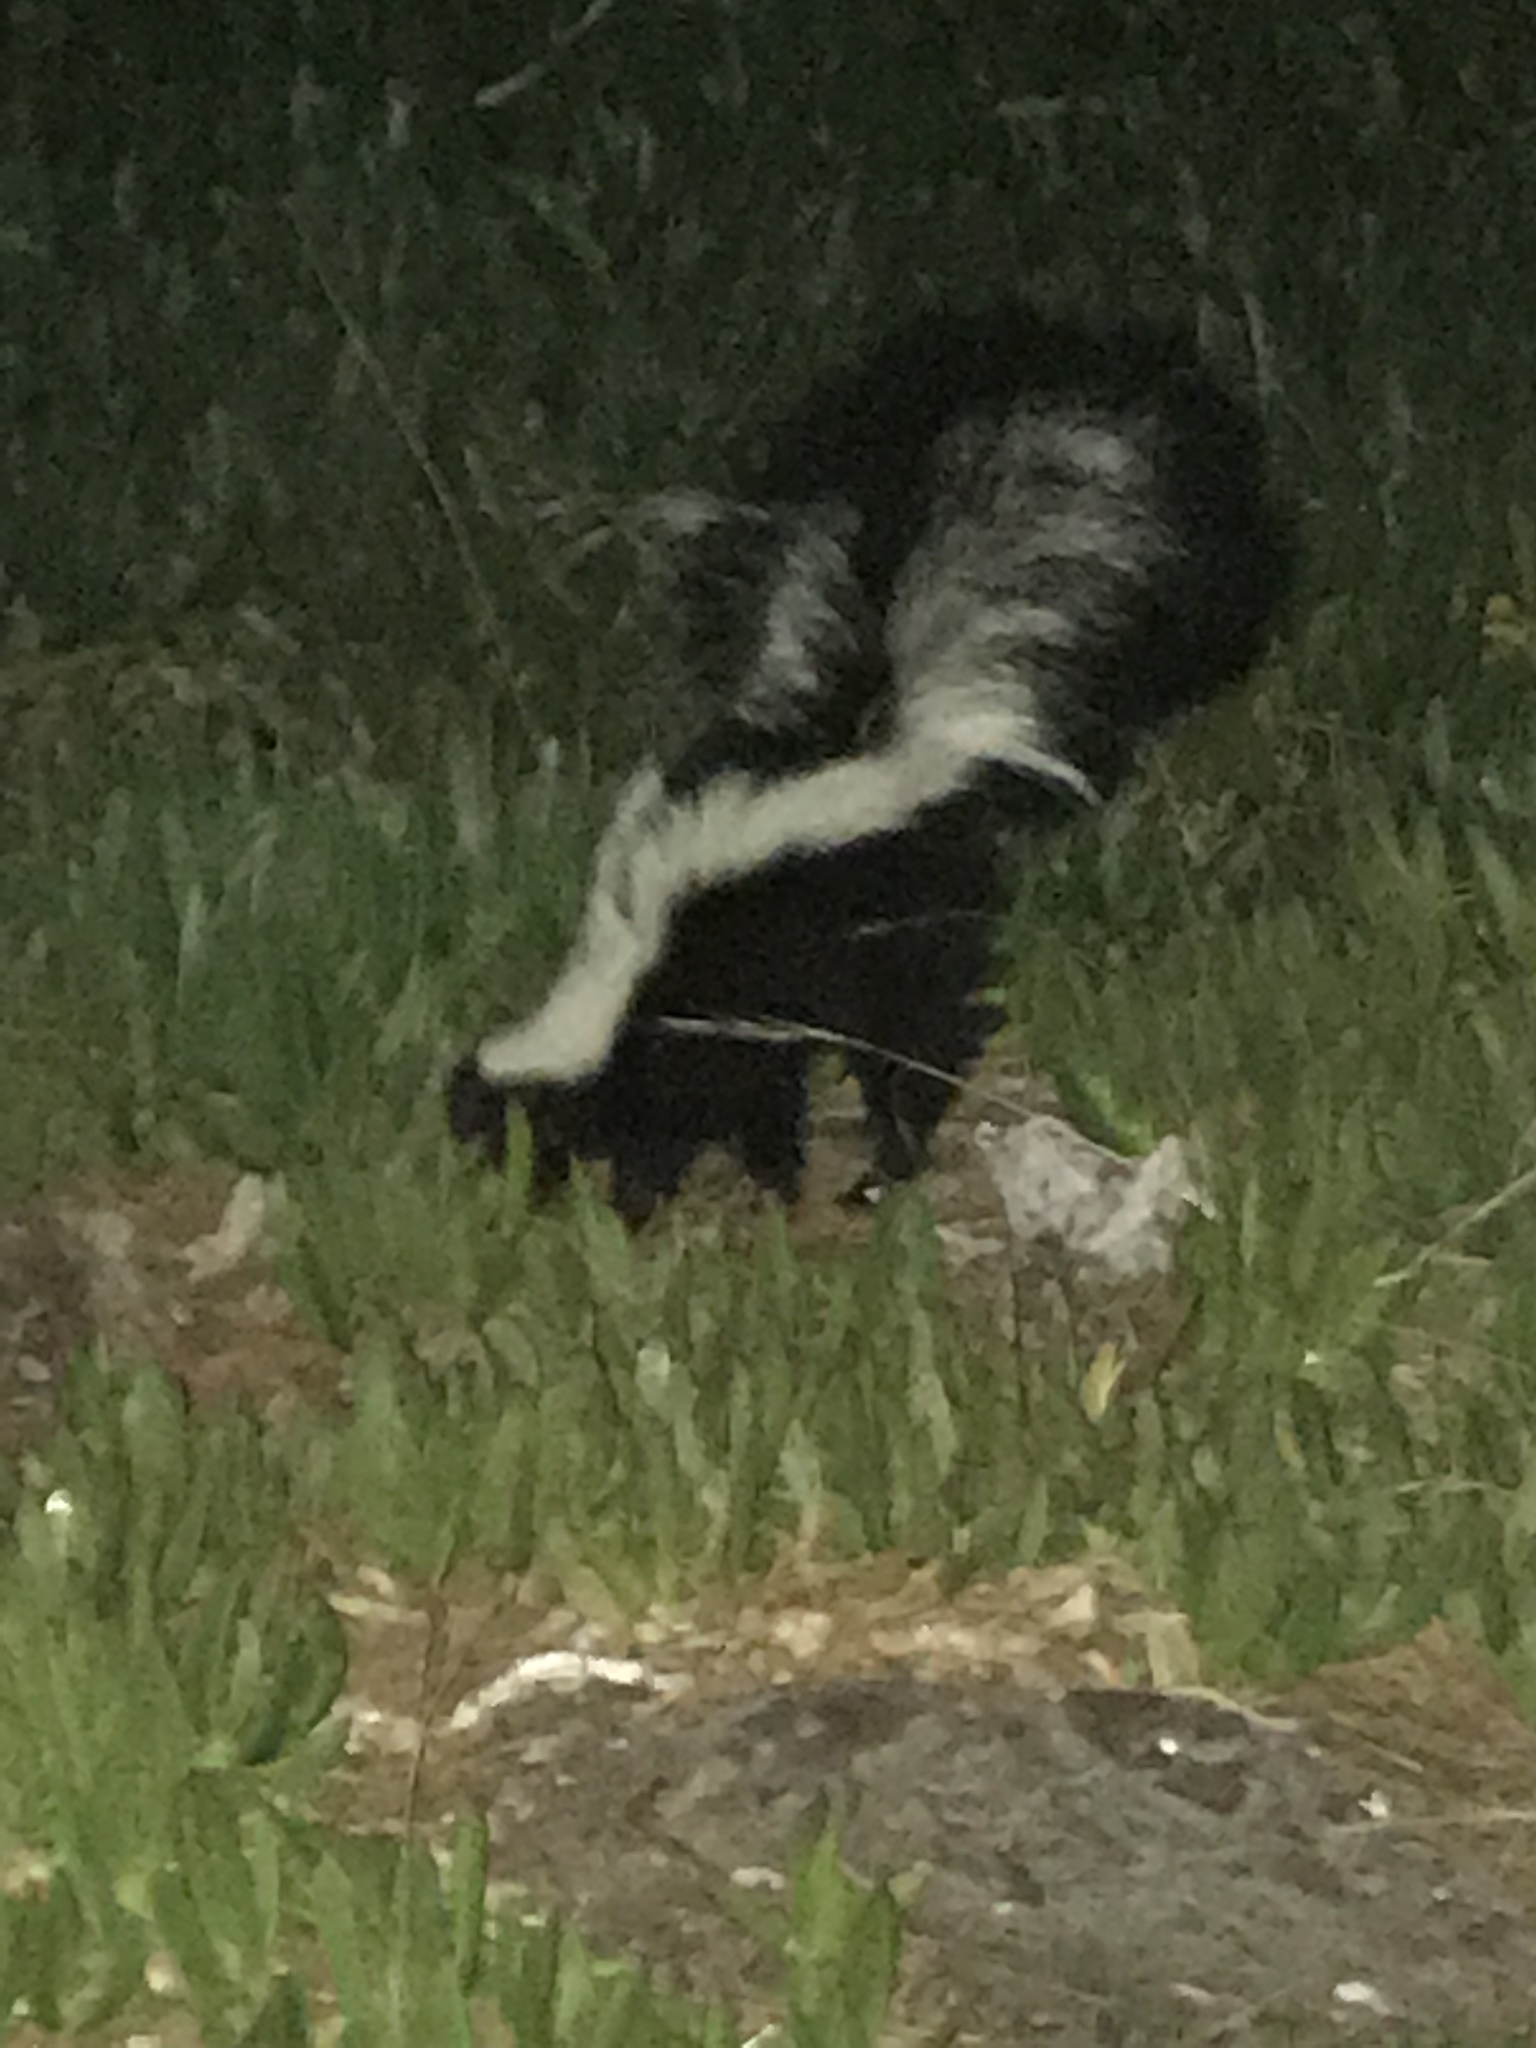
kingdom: Animalia
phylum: Chordata
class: Mammalia
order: Carnivora
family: Mephitidae
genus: Mephitis
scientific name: Mephitis mephitis
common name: Striped skunk
